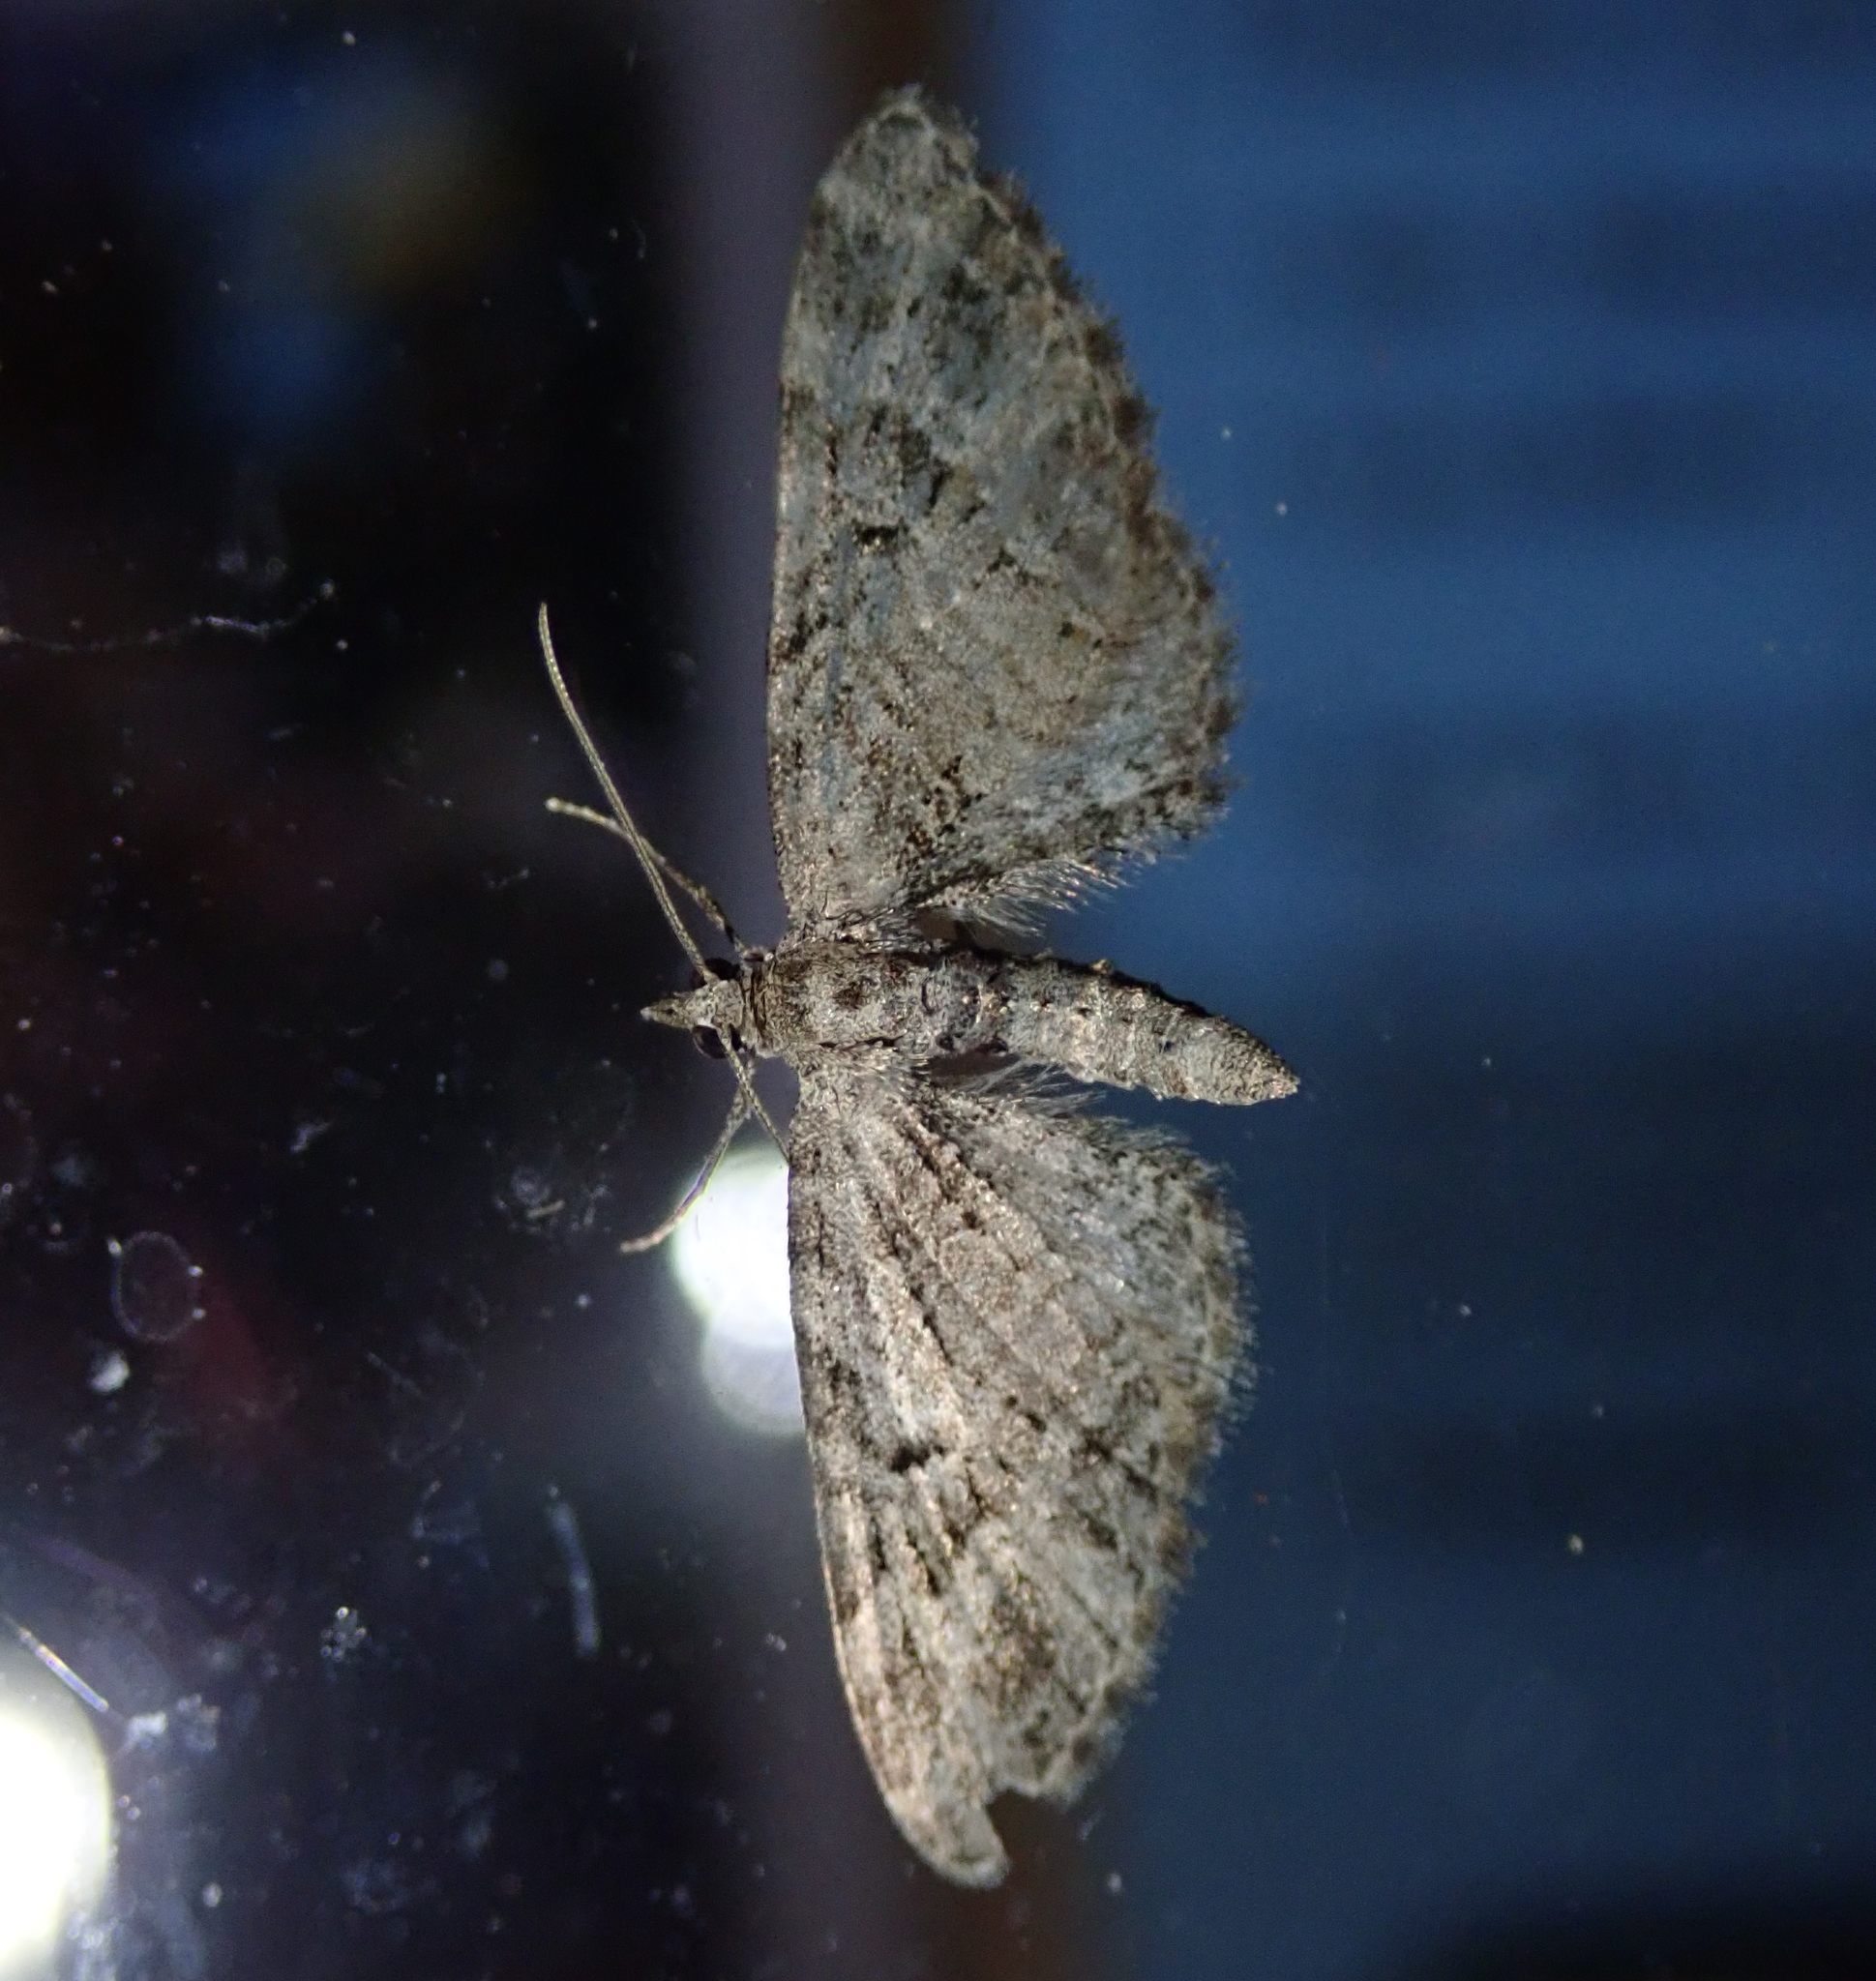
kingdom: Animalia
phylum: Arthropoda
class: Insecta
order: Lepidoptera
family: Geometridae
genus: Eupithecia
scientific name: Eupithecia exiguata
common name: Mottled pug
